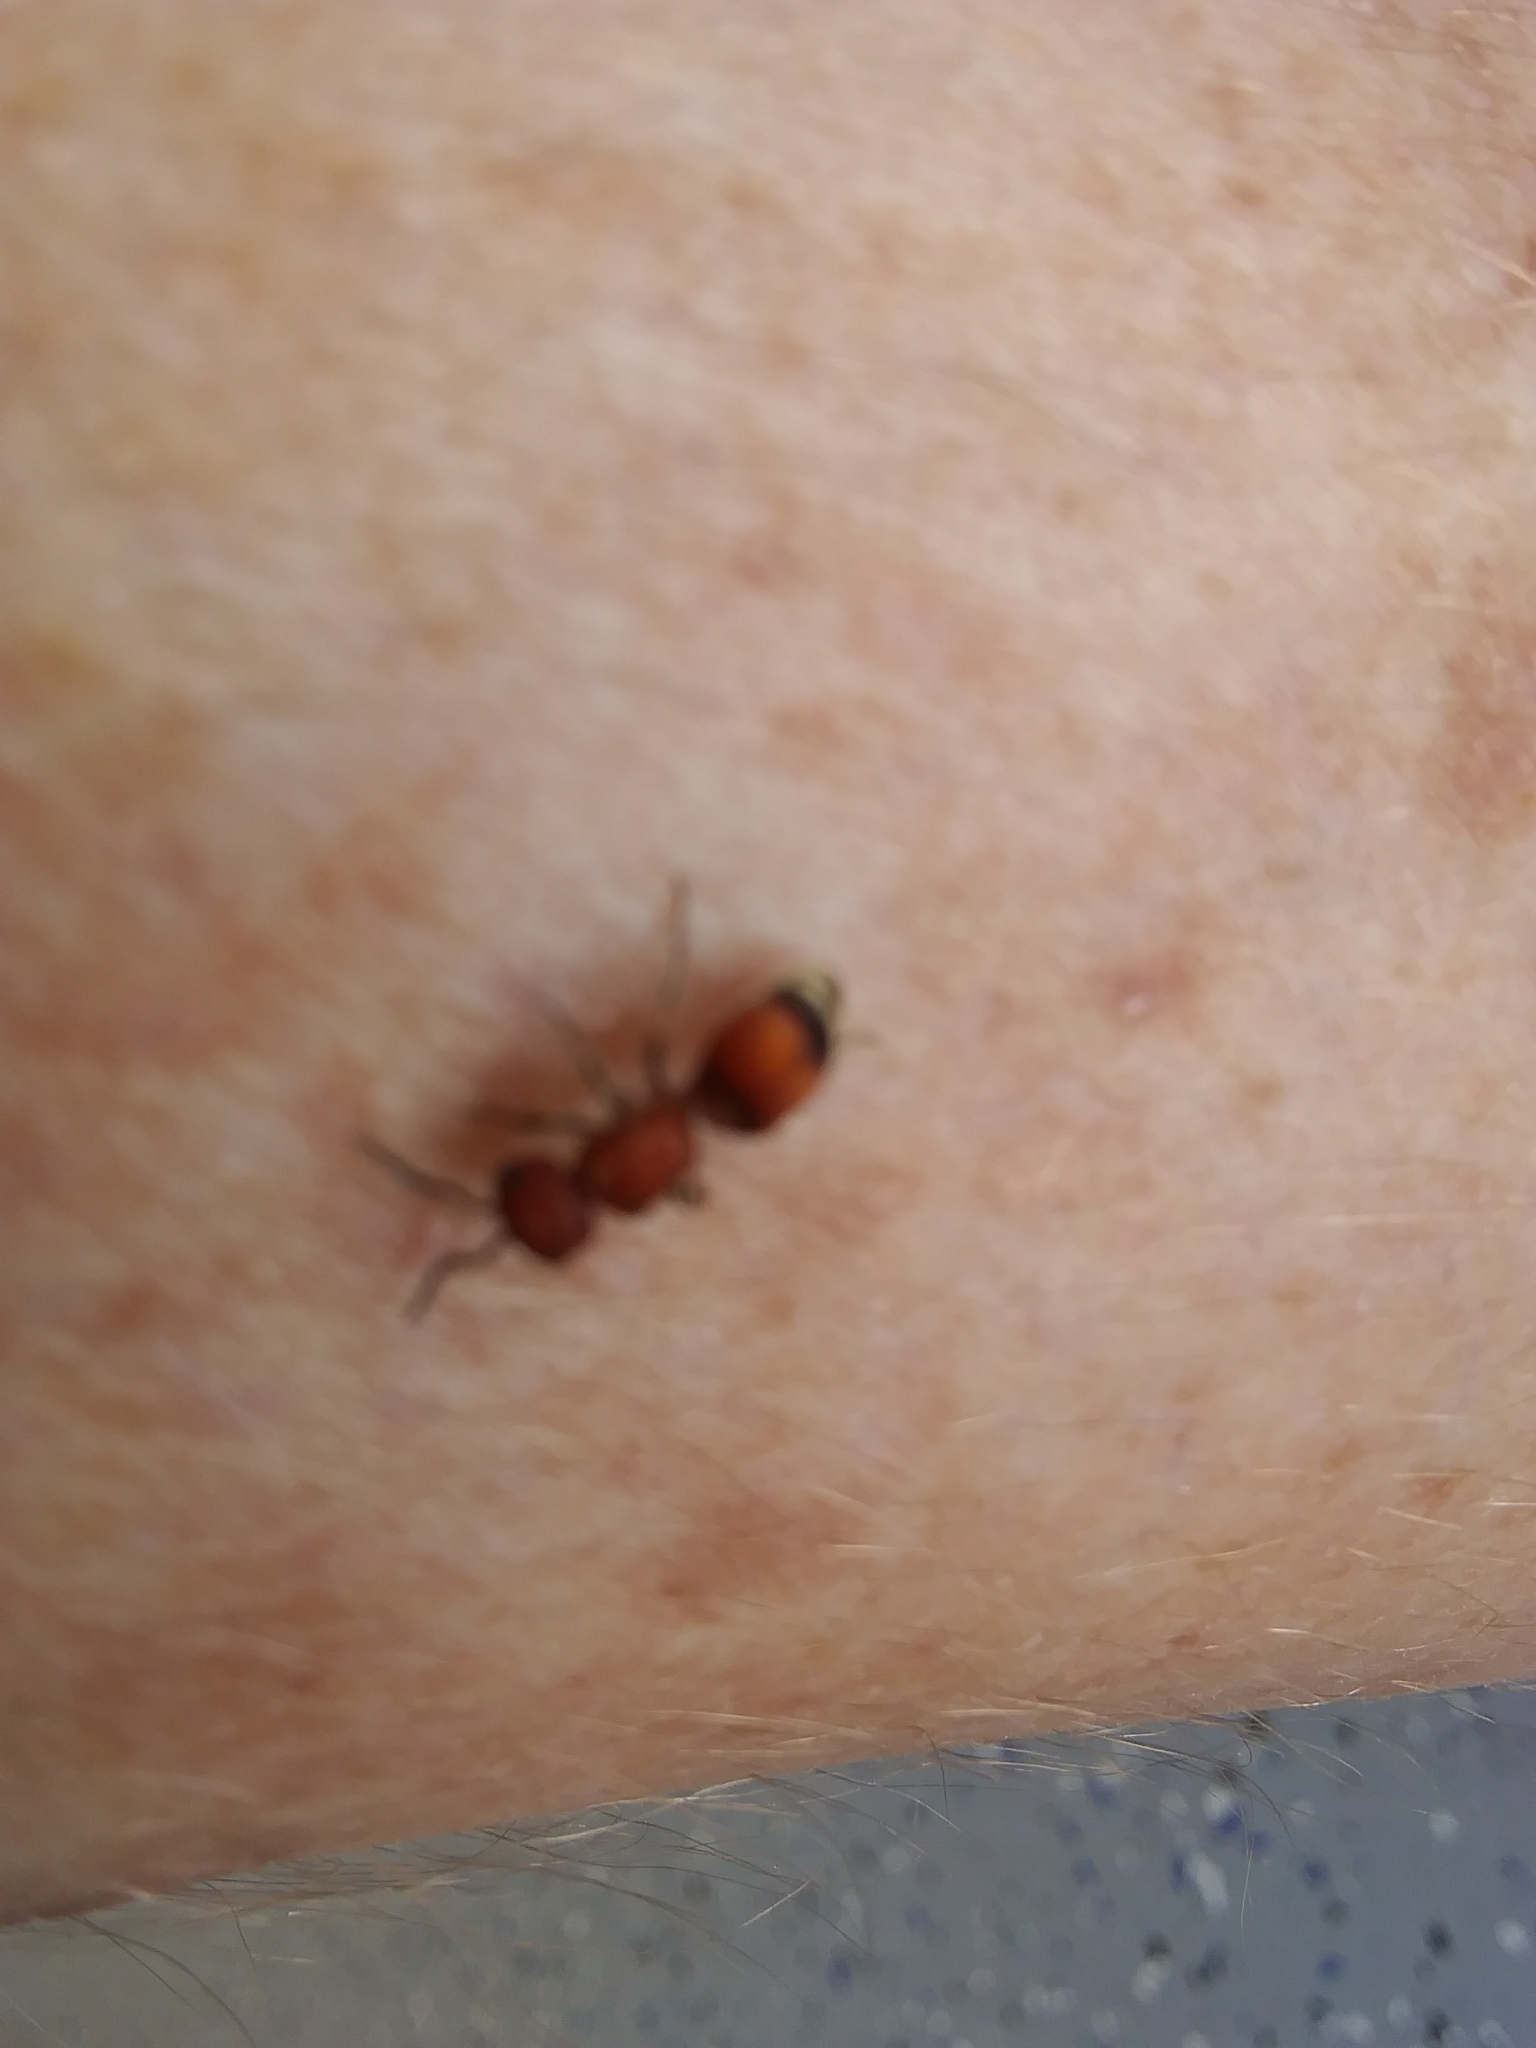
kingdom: Animalia
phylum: Arthropoda
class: Insecta
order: Hymenoptera
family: Mutillidae
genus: Pseudomethoca
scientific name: Pseudomethoca
